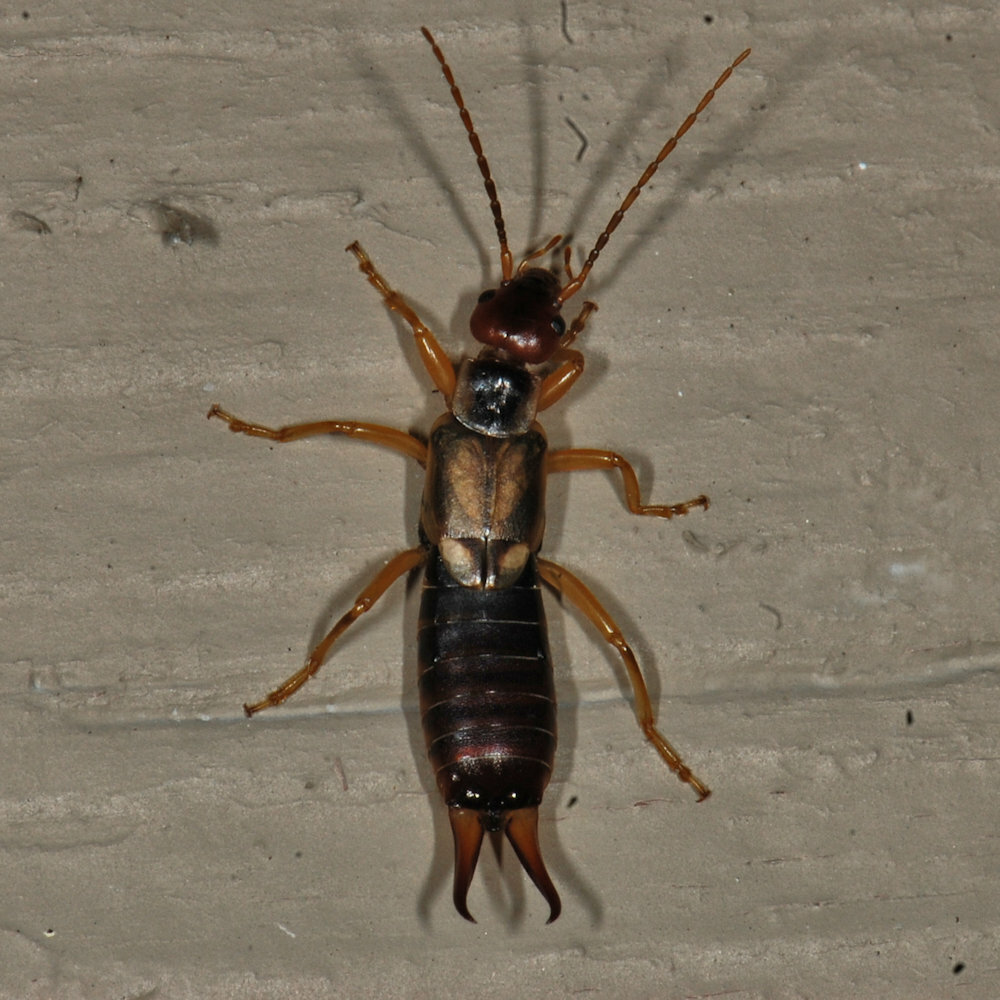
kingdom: Animalia
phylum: Arthropoda
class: Insecta
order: Dermaptera
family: Forficulidae
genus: Forficula
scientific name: Forficula
